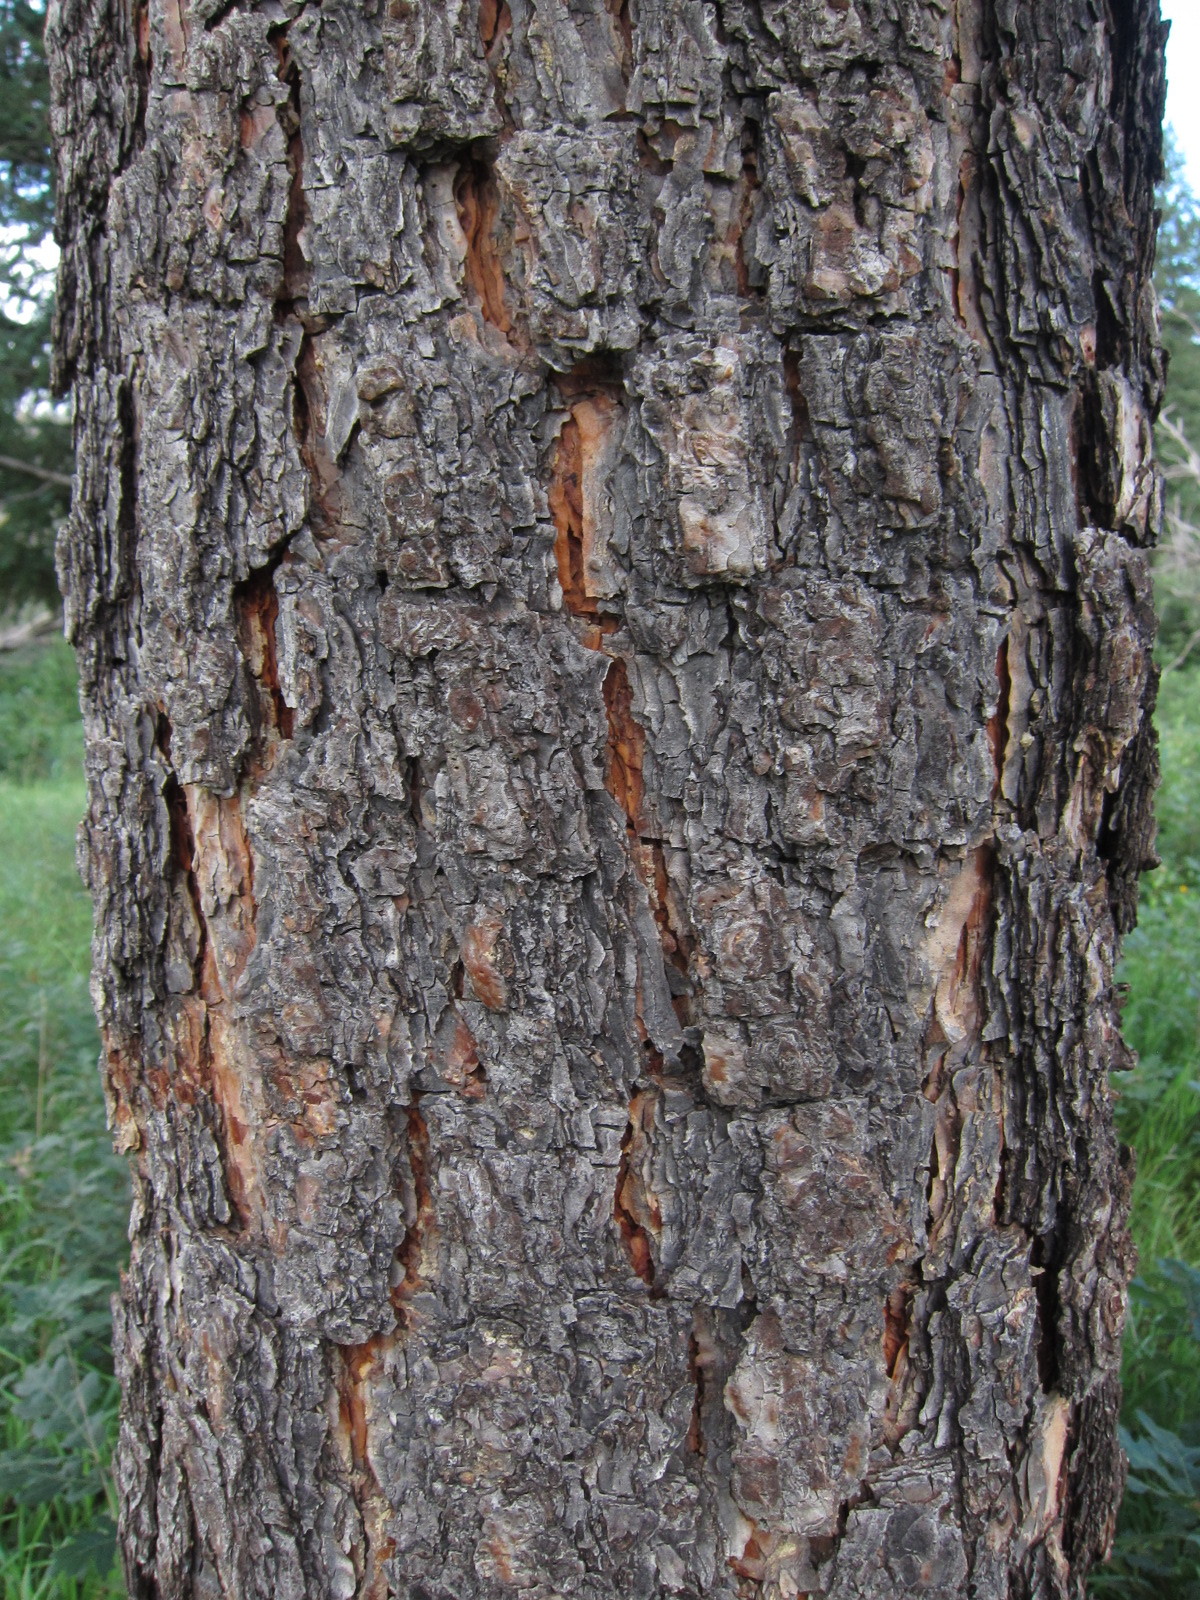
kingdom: Plantae
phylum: Tracheophyta
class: Pinopsida
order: Pinales
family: Pinaceae
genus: Pinus
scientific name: Pinus ponderosa
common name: Western yellow-pine
